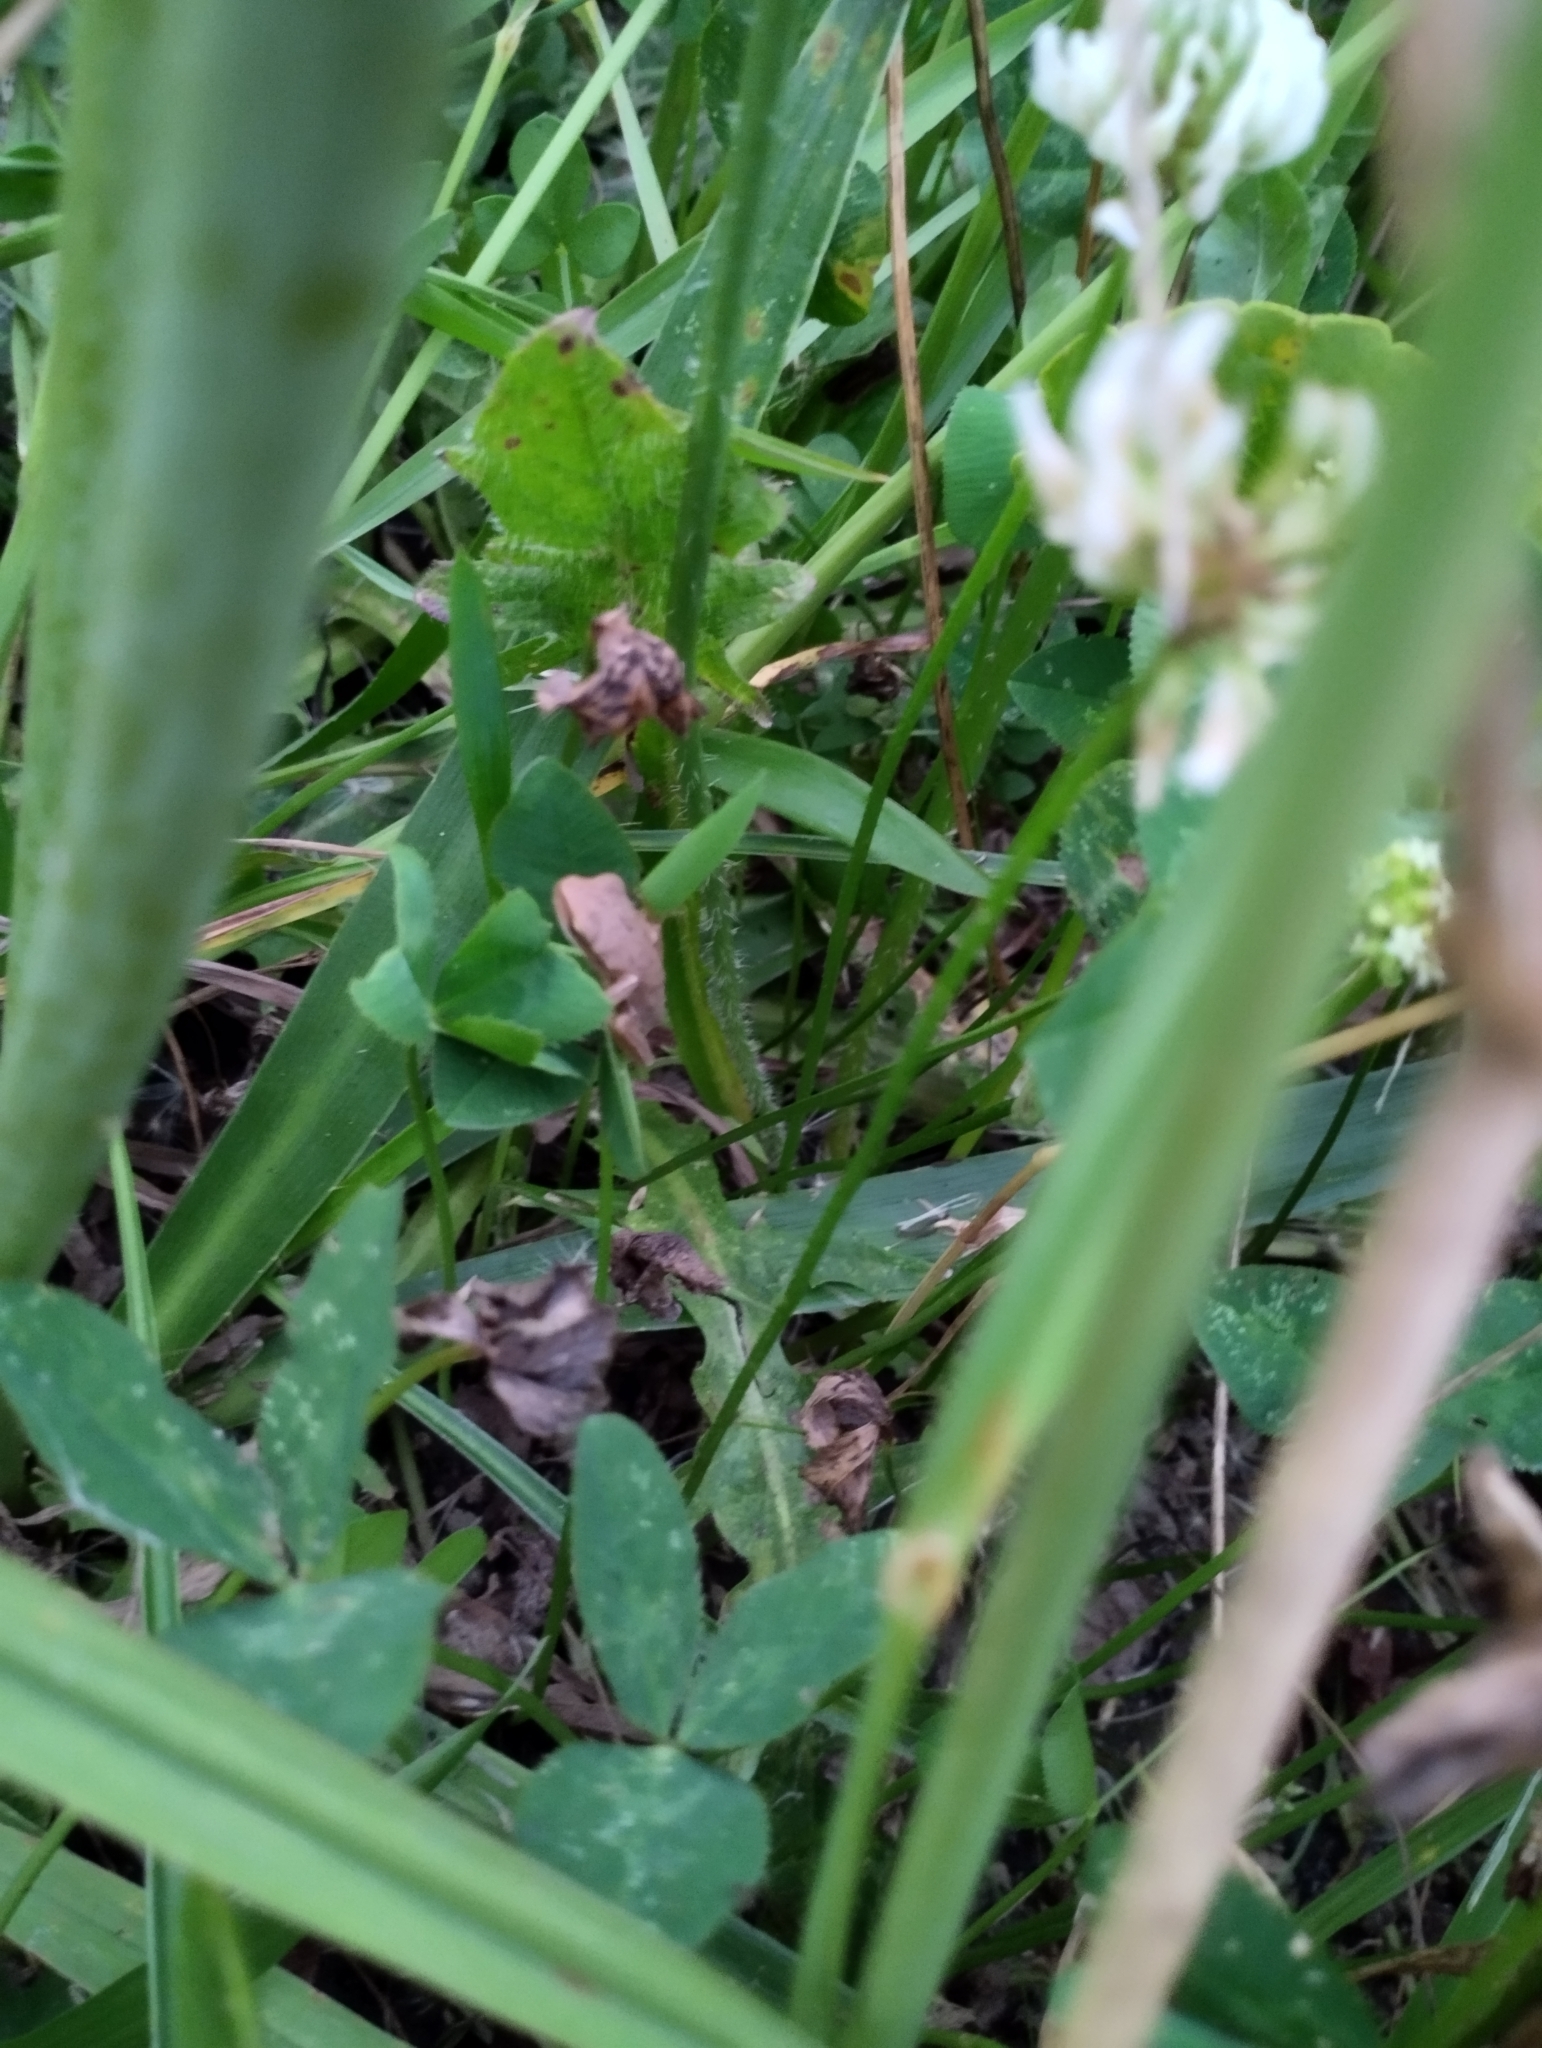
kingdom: Animalia
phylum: Chordata
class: Amphibia
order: Anura
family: Hylidae
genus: Boana
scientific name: Boana pulchella
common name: Montevideo treefrog
